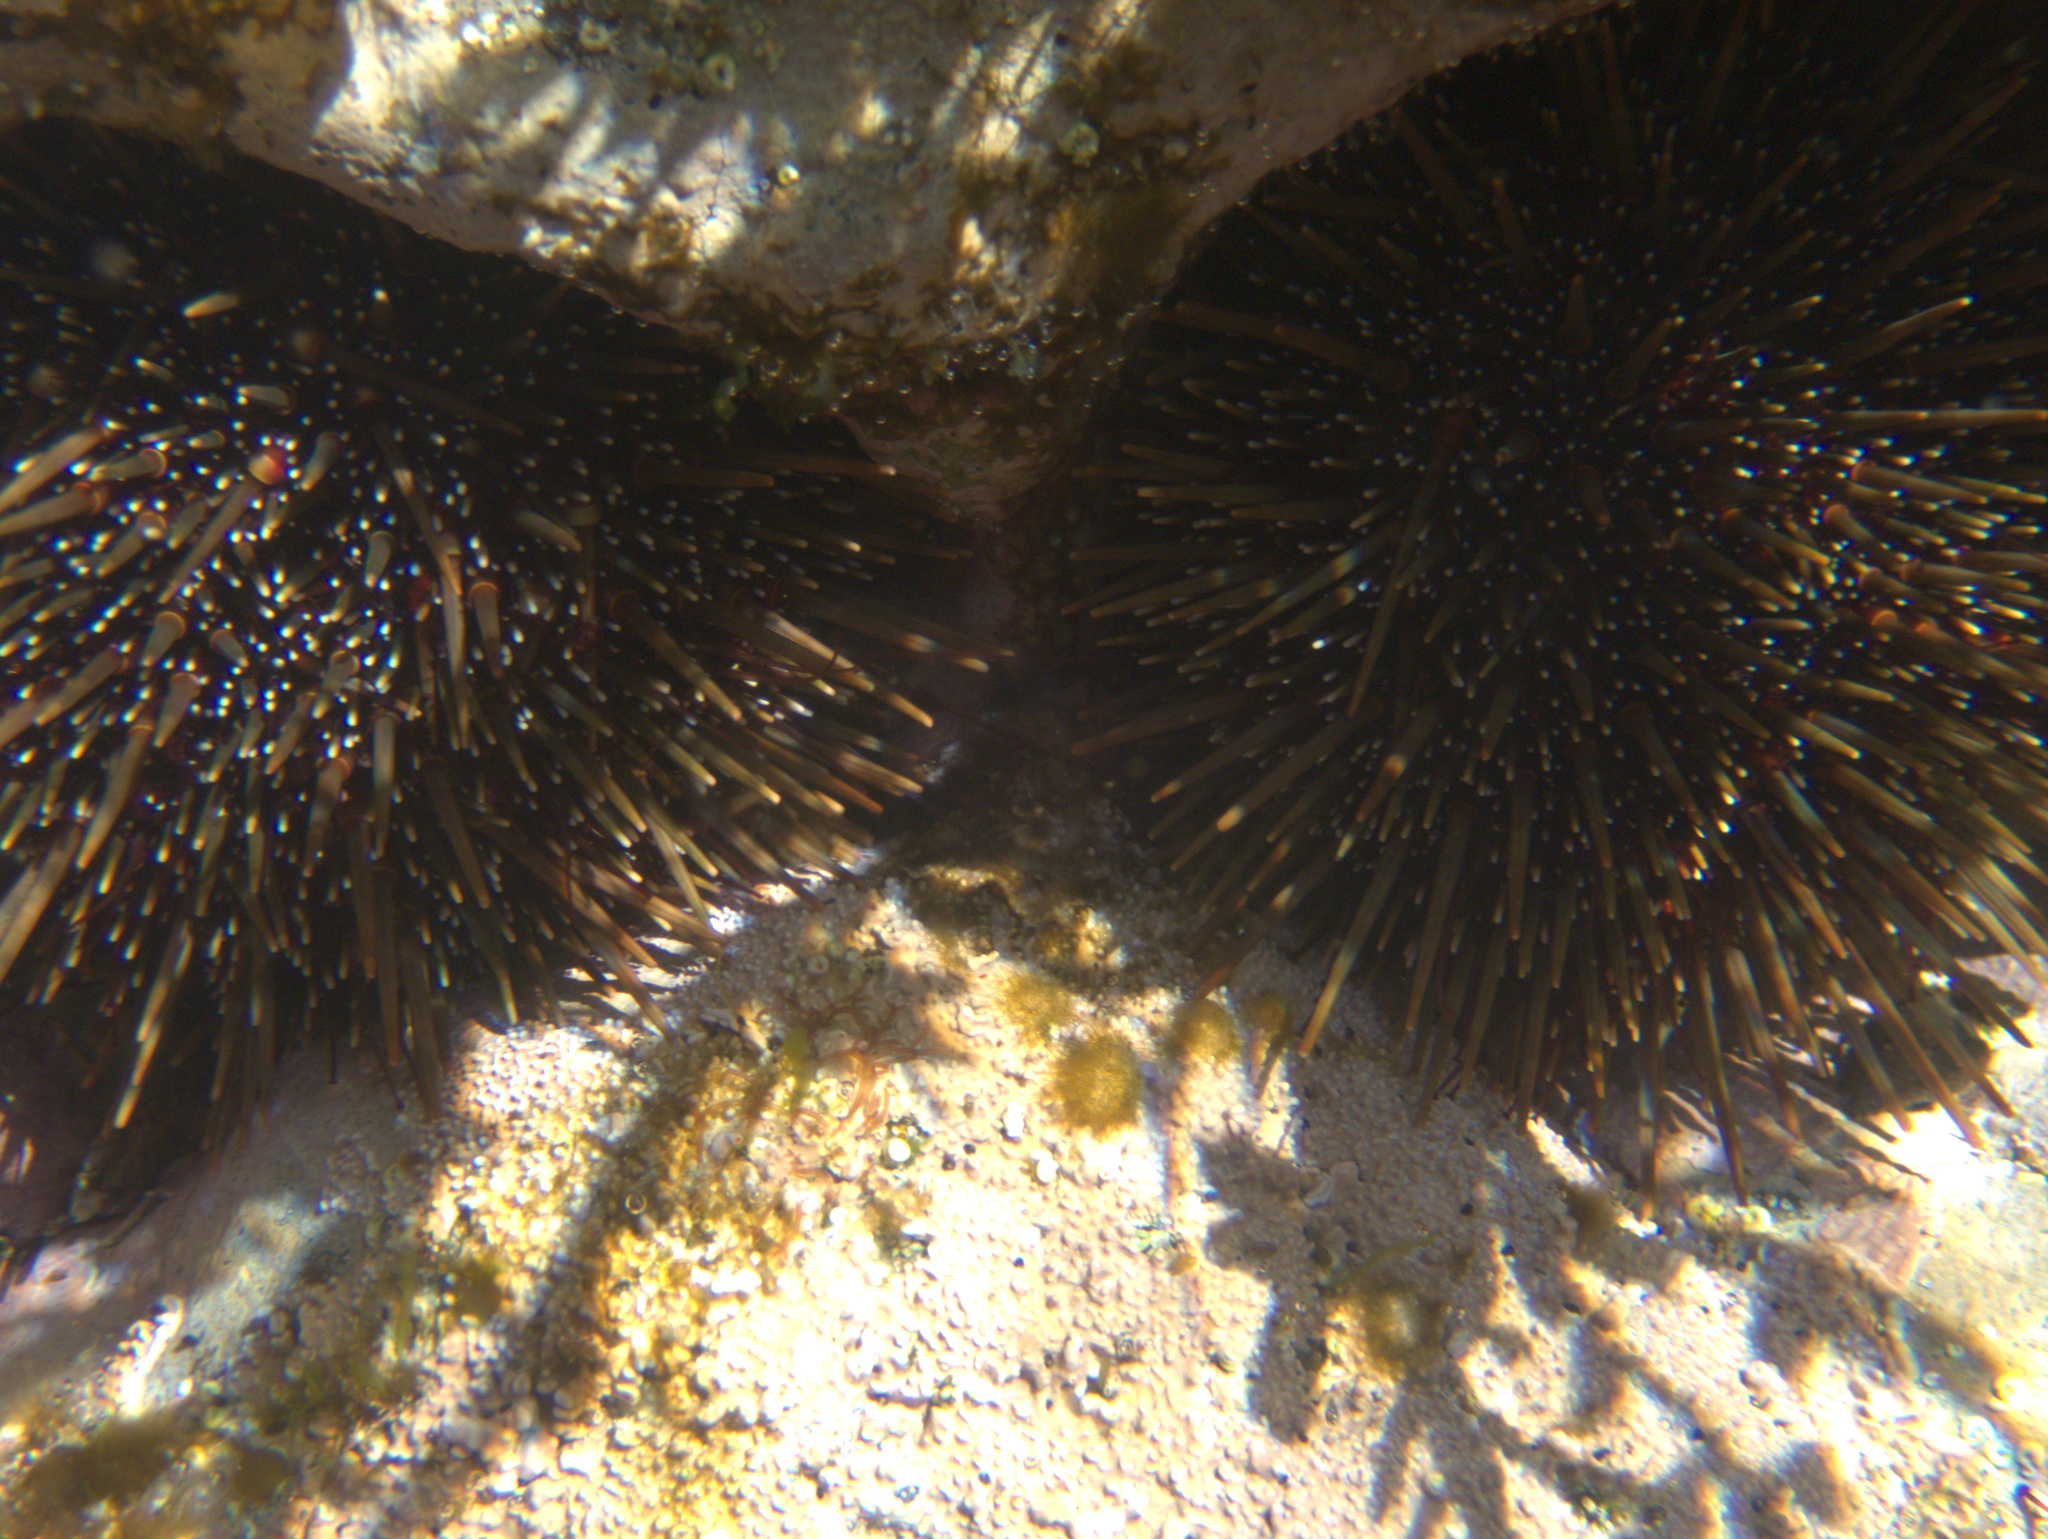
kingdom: Animalia
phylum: Echinodermata
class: Echinoidea
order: Camarodonta
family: Echinometridae
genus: Evechinus
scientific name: Evechinus chloroticus
